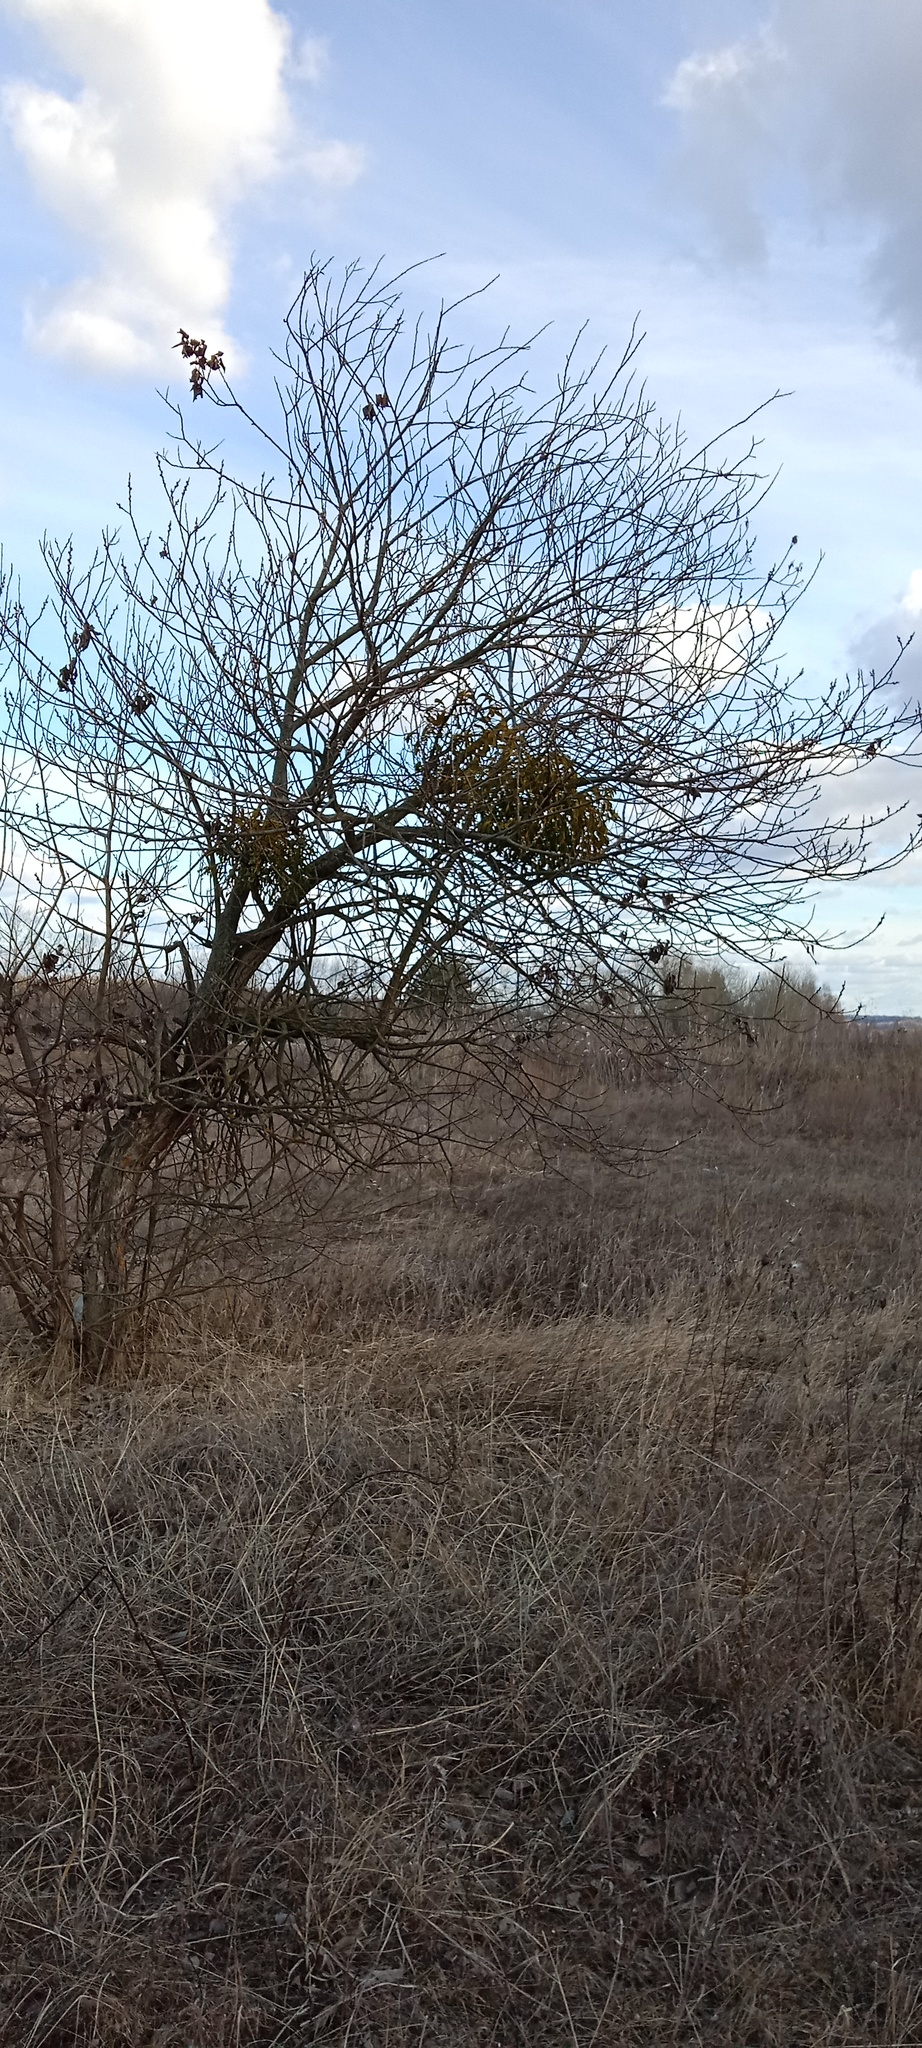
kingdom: Plantae
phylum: Tracheophyta
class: Magnoliopsida
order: Santalales
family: Viscaceae
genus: Viscum
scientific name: Viscum album
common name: Mistletoe
